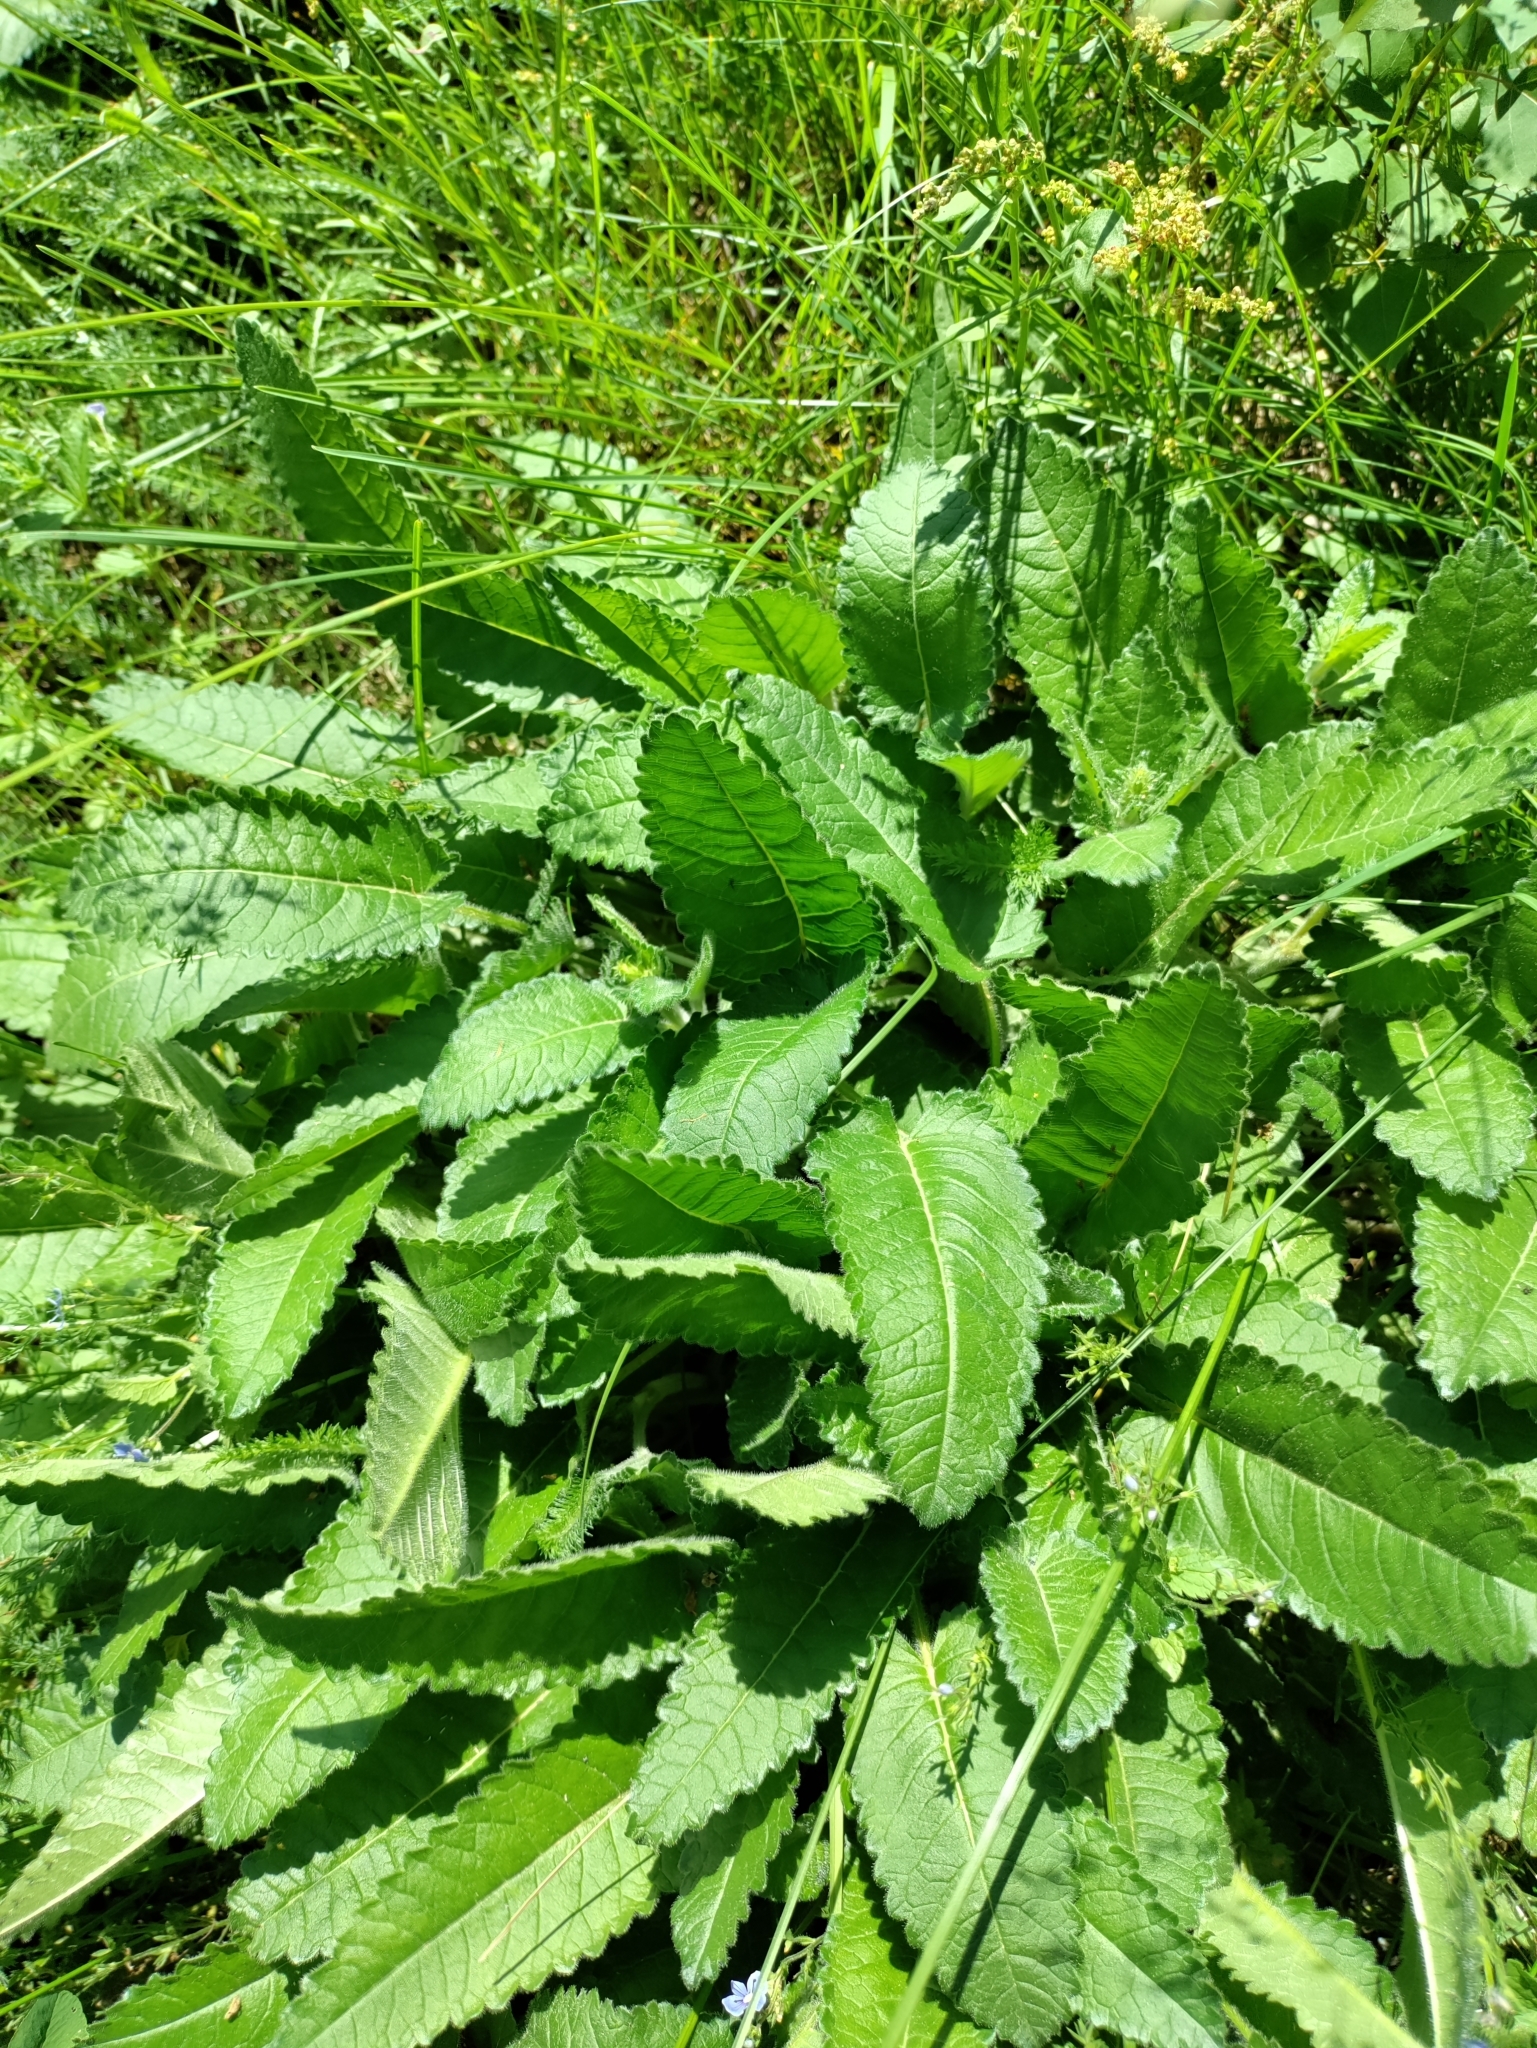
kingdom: Plantae
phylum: Tracheophyta
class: Magnoliopsida
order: Lamiales
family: Lamiaceae
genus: Betonica
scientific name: Betonica officinalis
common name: Bishop's-wort
